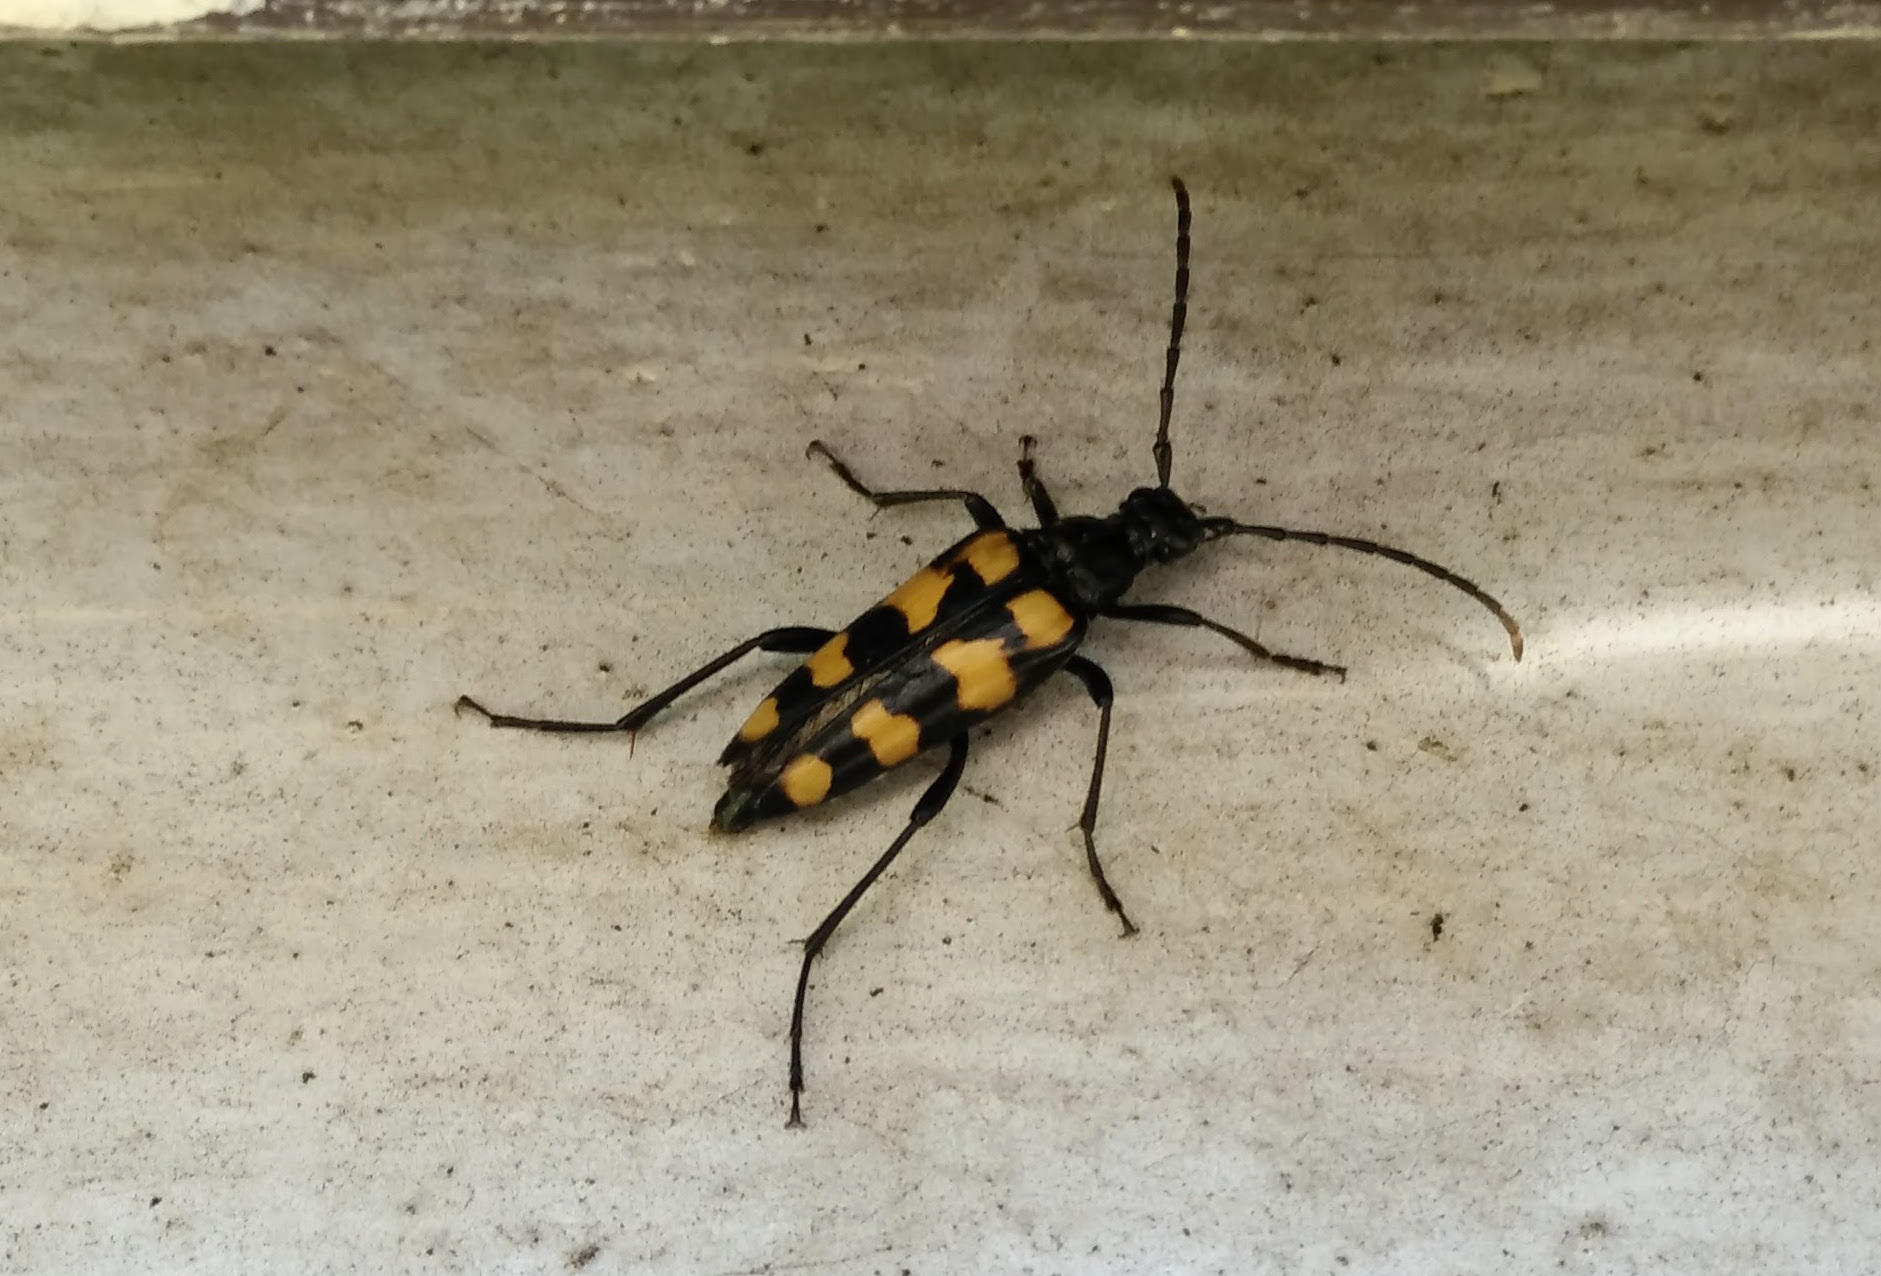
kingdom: Animalia
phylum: Arthropoda
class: Insecta
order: Coleoptera
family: Cerambycidae
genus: Leptura
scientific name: Leptura quadrifasciata
